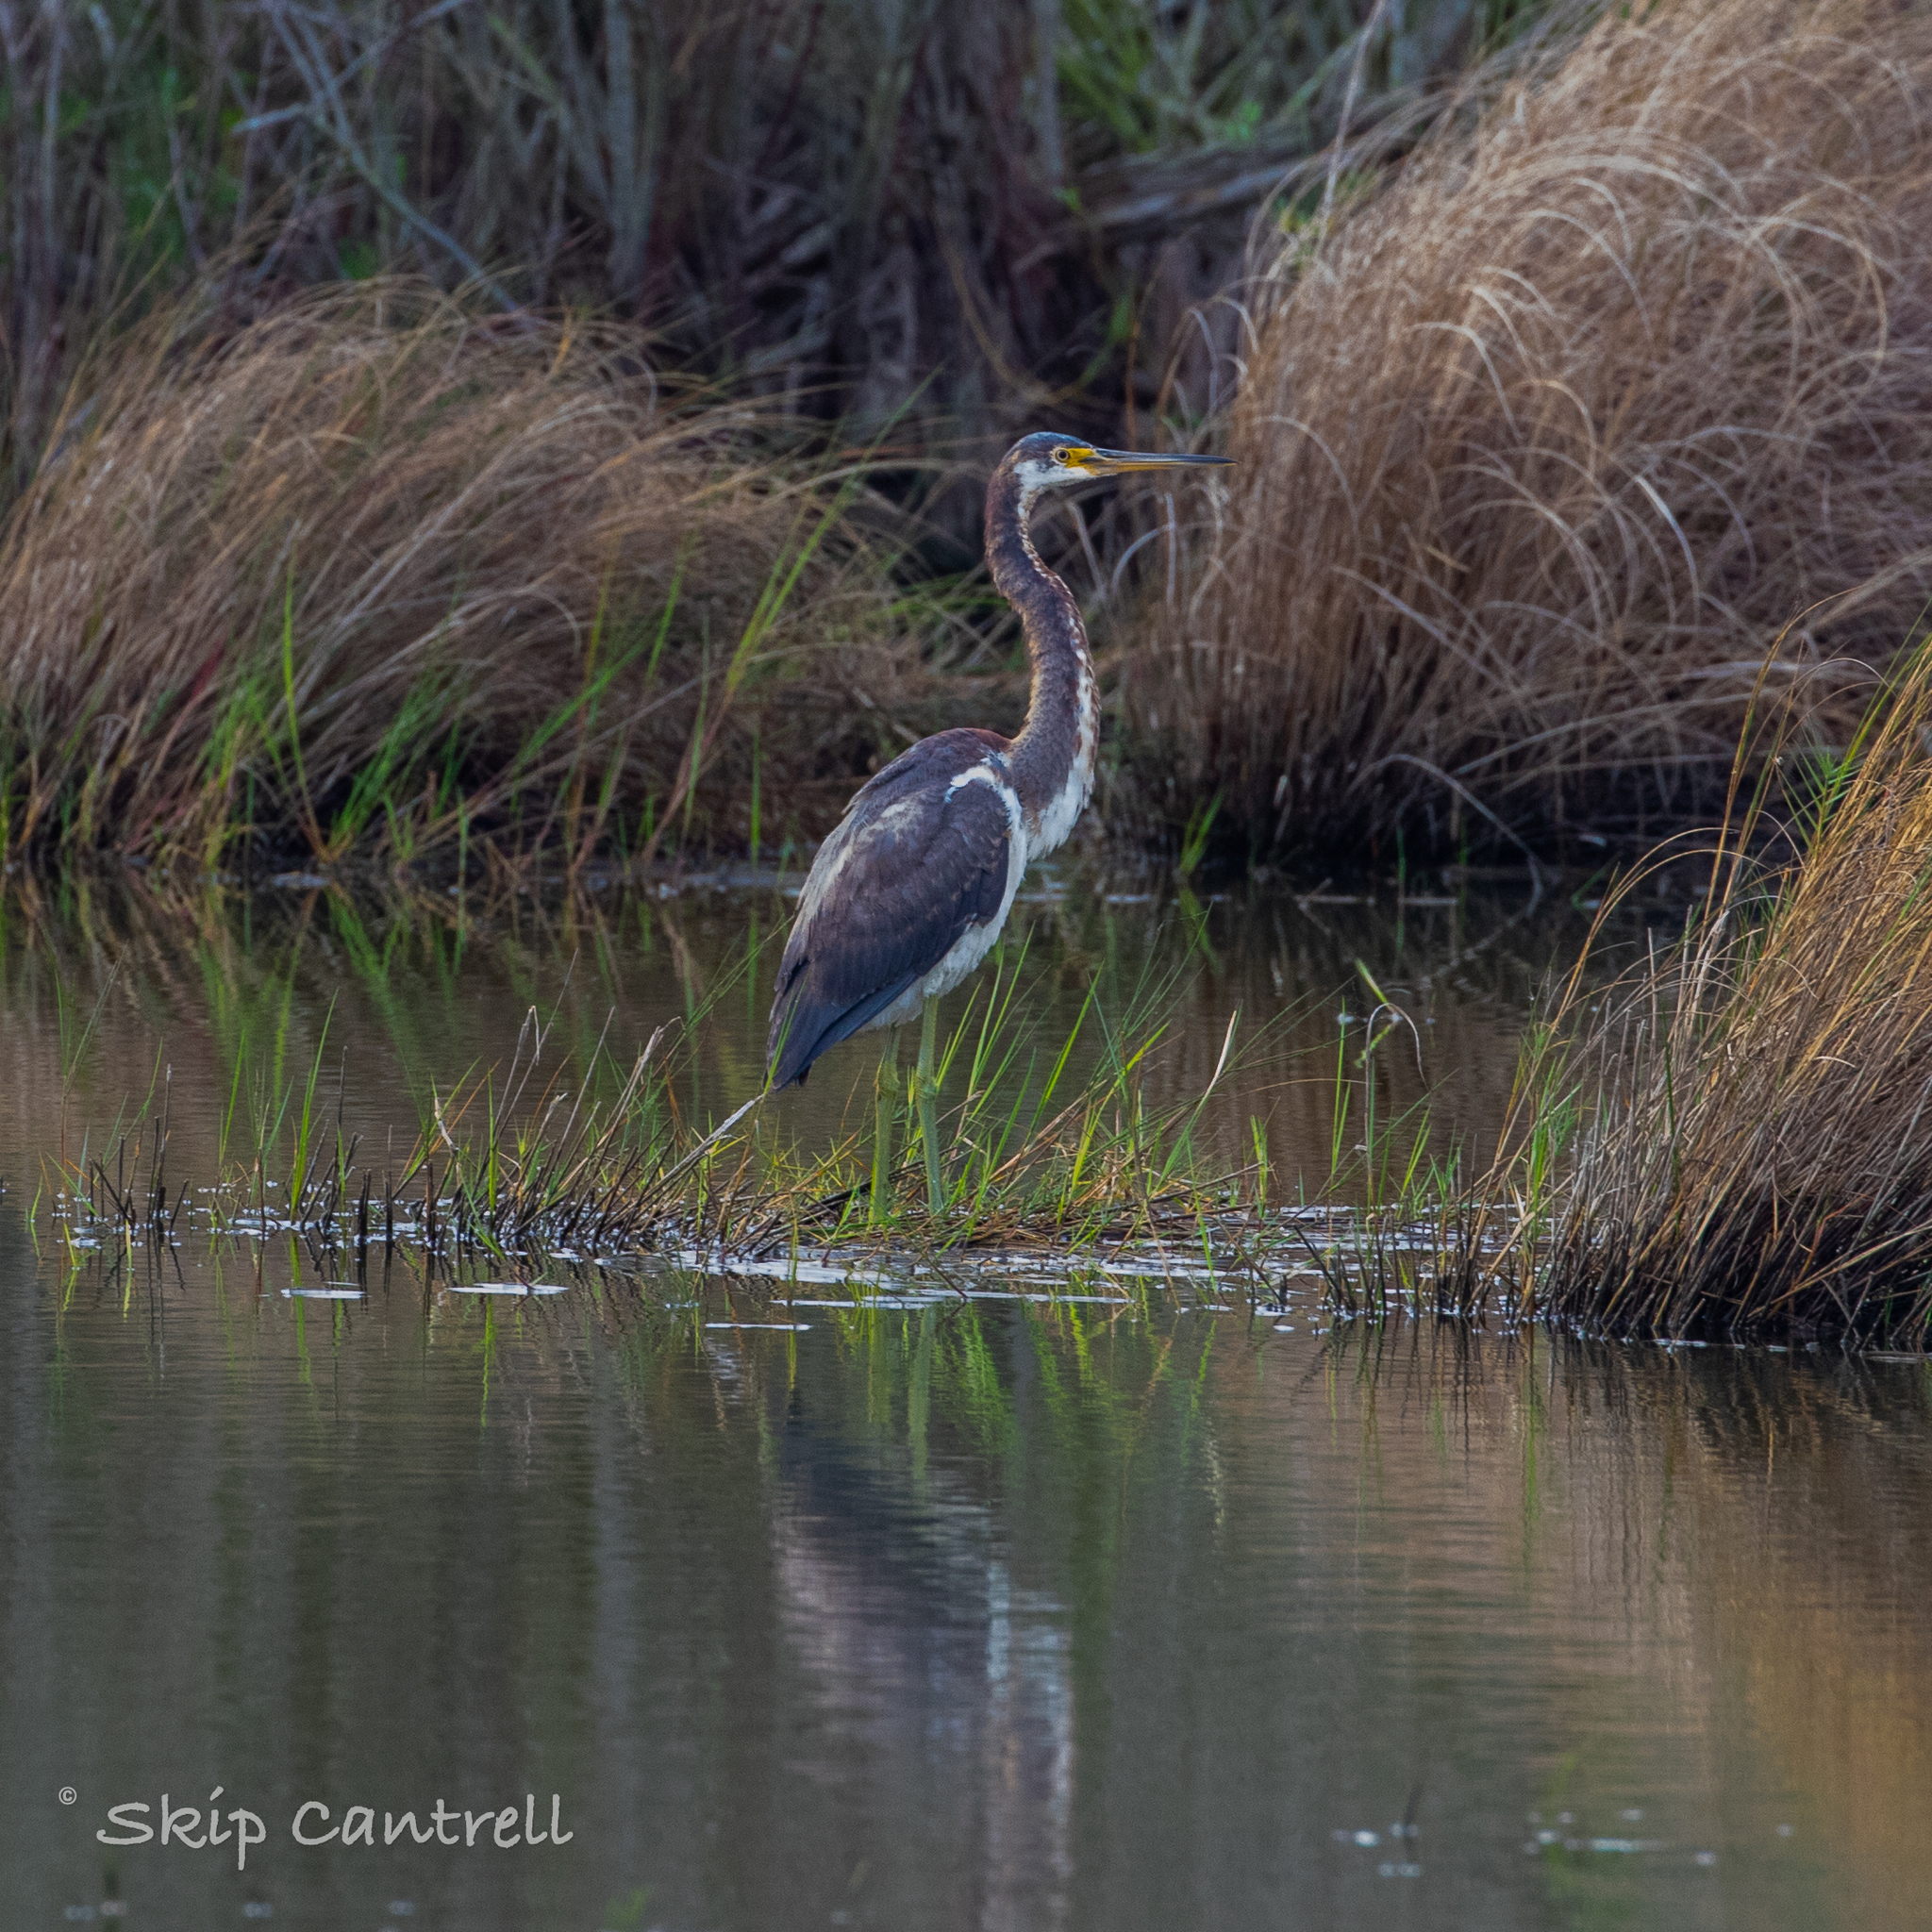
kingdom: Animalia
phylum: Chordata
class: Aves
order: Pelecaniformes
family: Ardeidae
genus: Egretta
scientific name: Egretta tricolor
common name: Tricolored heron
